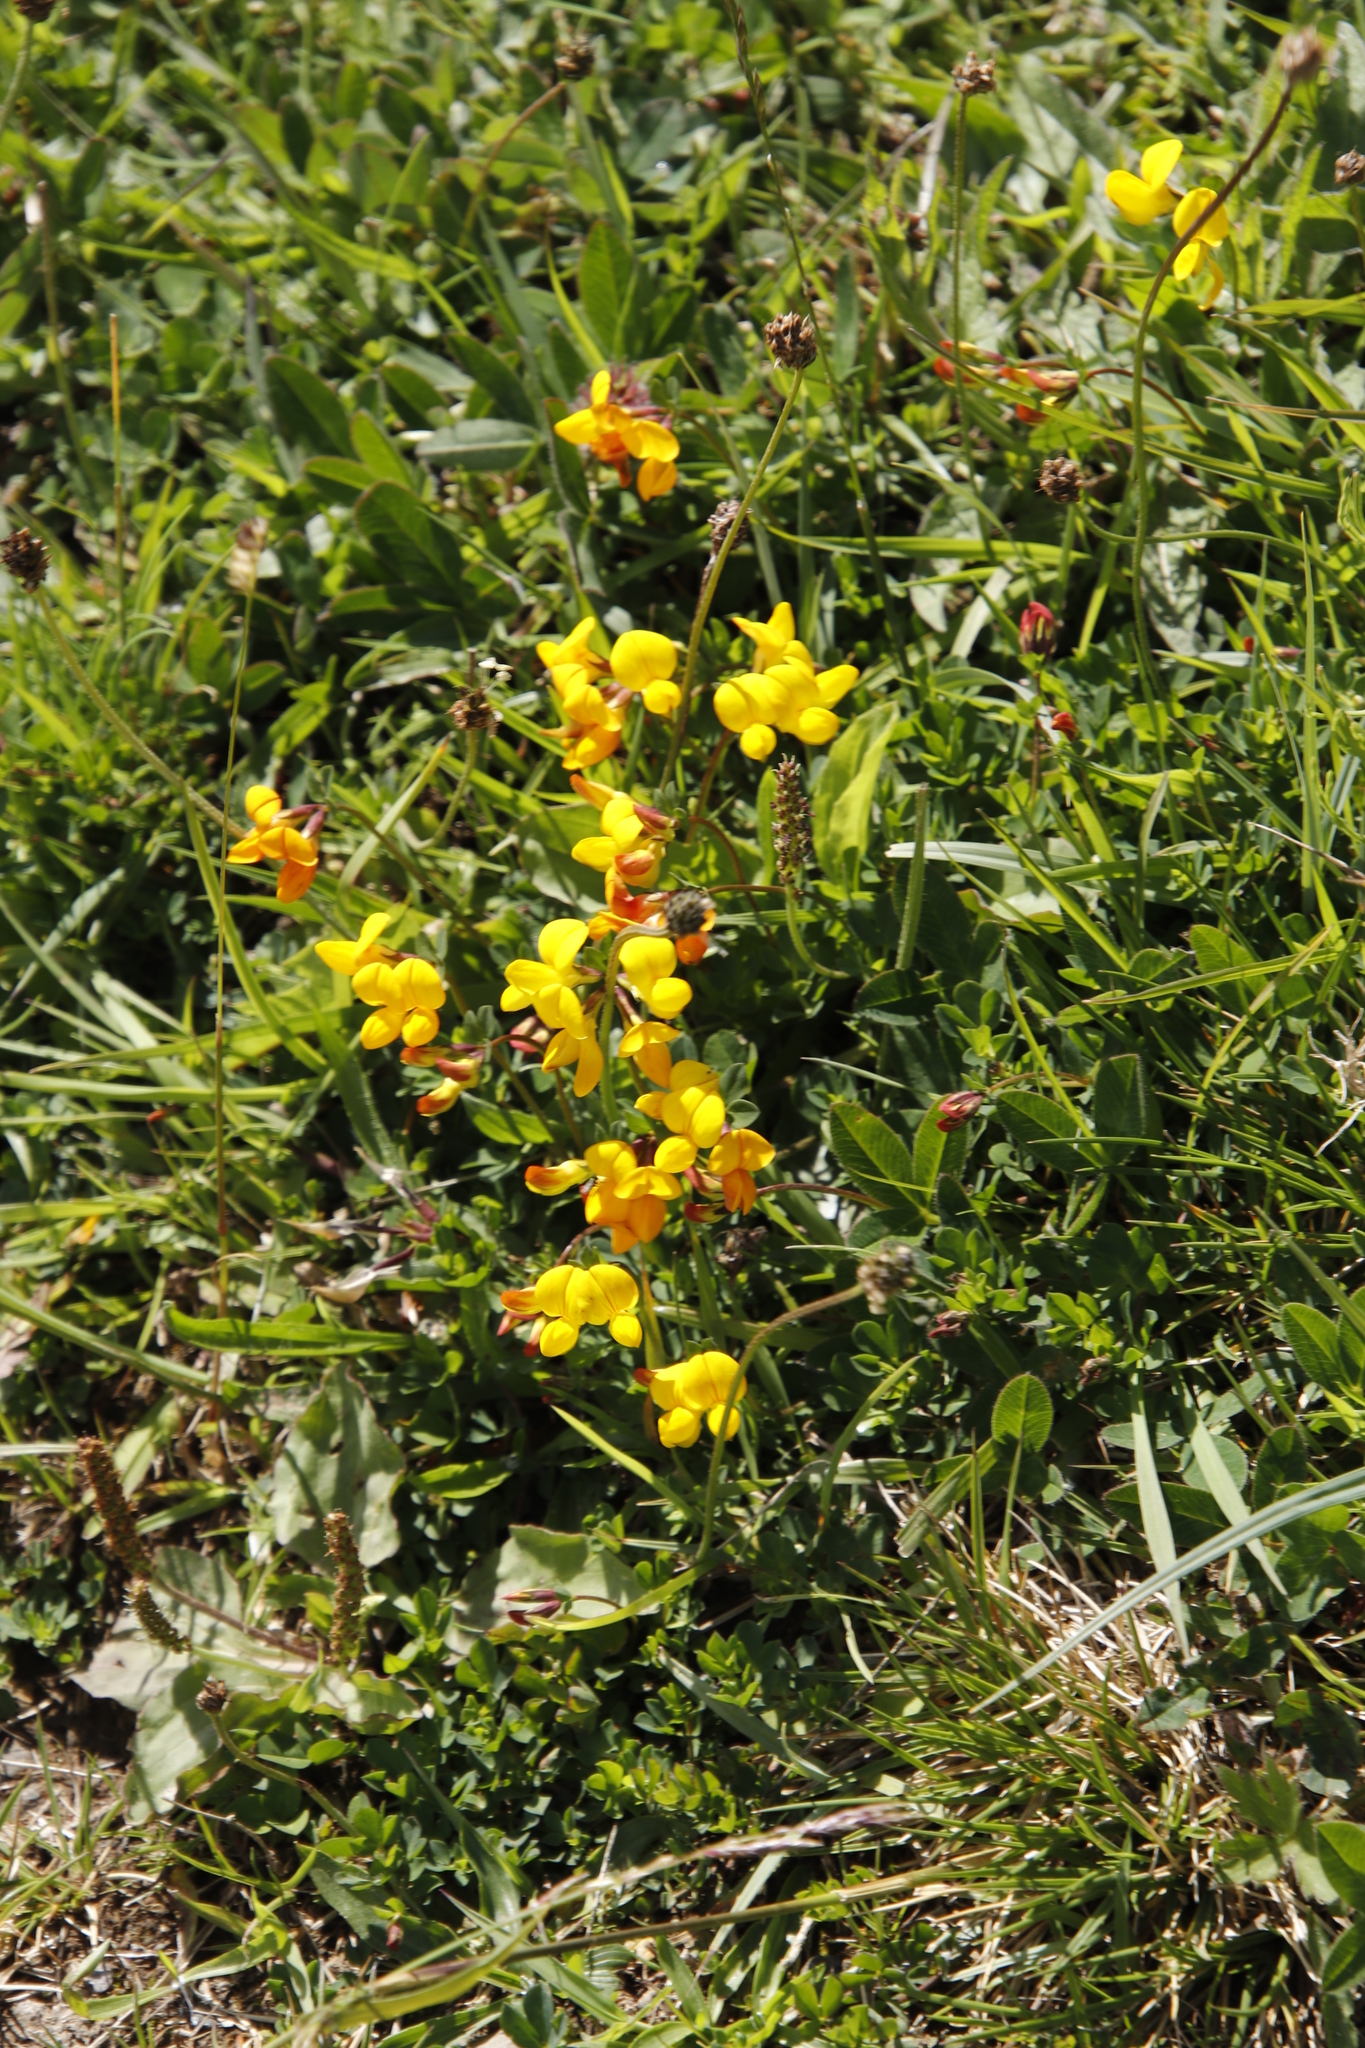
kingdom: Plantae
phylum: Tracheophyta
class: Magnoliopsida
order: Fabales
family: Fabaceae
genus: Lotus
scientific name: Lotus corniculatus
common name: Common bird's-foot-trefoil
